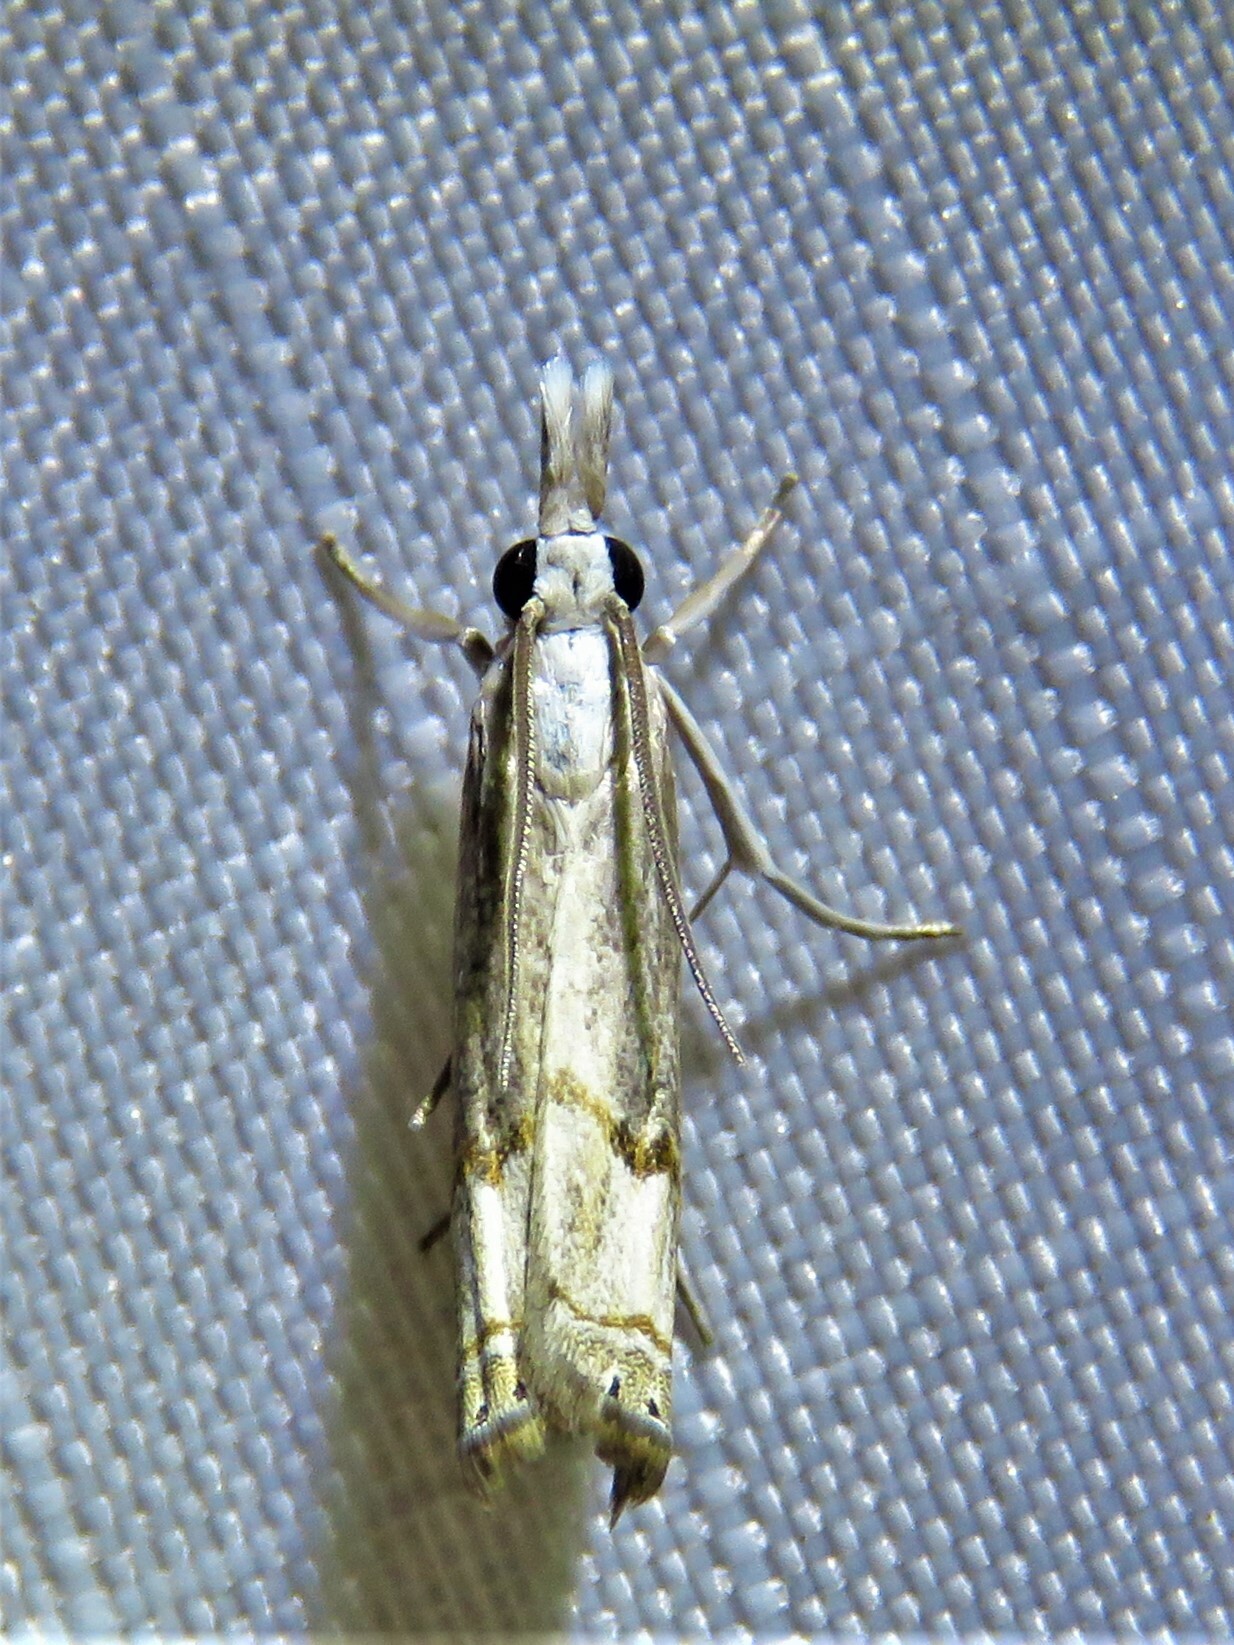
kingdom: Animalia
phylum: Arthropoda
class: Insecta
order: Lepidoptera
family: Crambidae
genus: Parapediasia
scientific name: Parapediasia teterellus
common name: Bluegrass webworm moth
